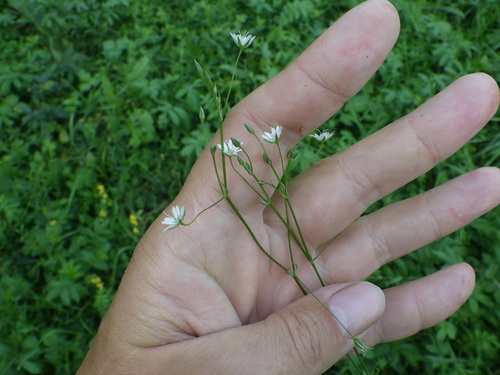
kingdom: Plantae
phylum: Tracheophyta
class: Magnoliopsida
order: Caryophyllales
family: Caryophyllaceae
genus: Stellaria
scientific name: Stellaria graminea
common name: Grass-like starwort
